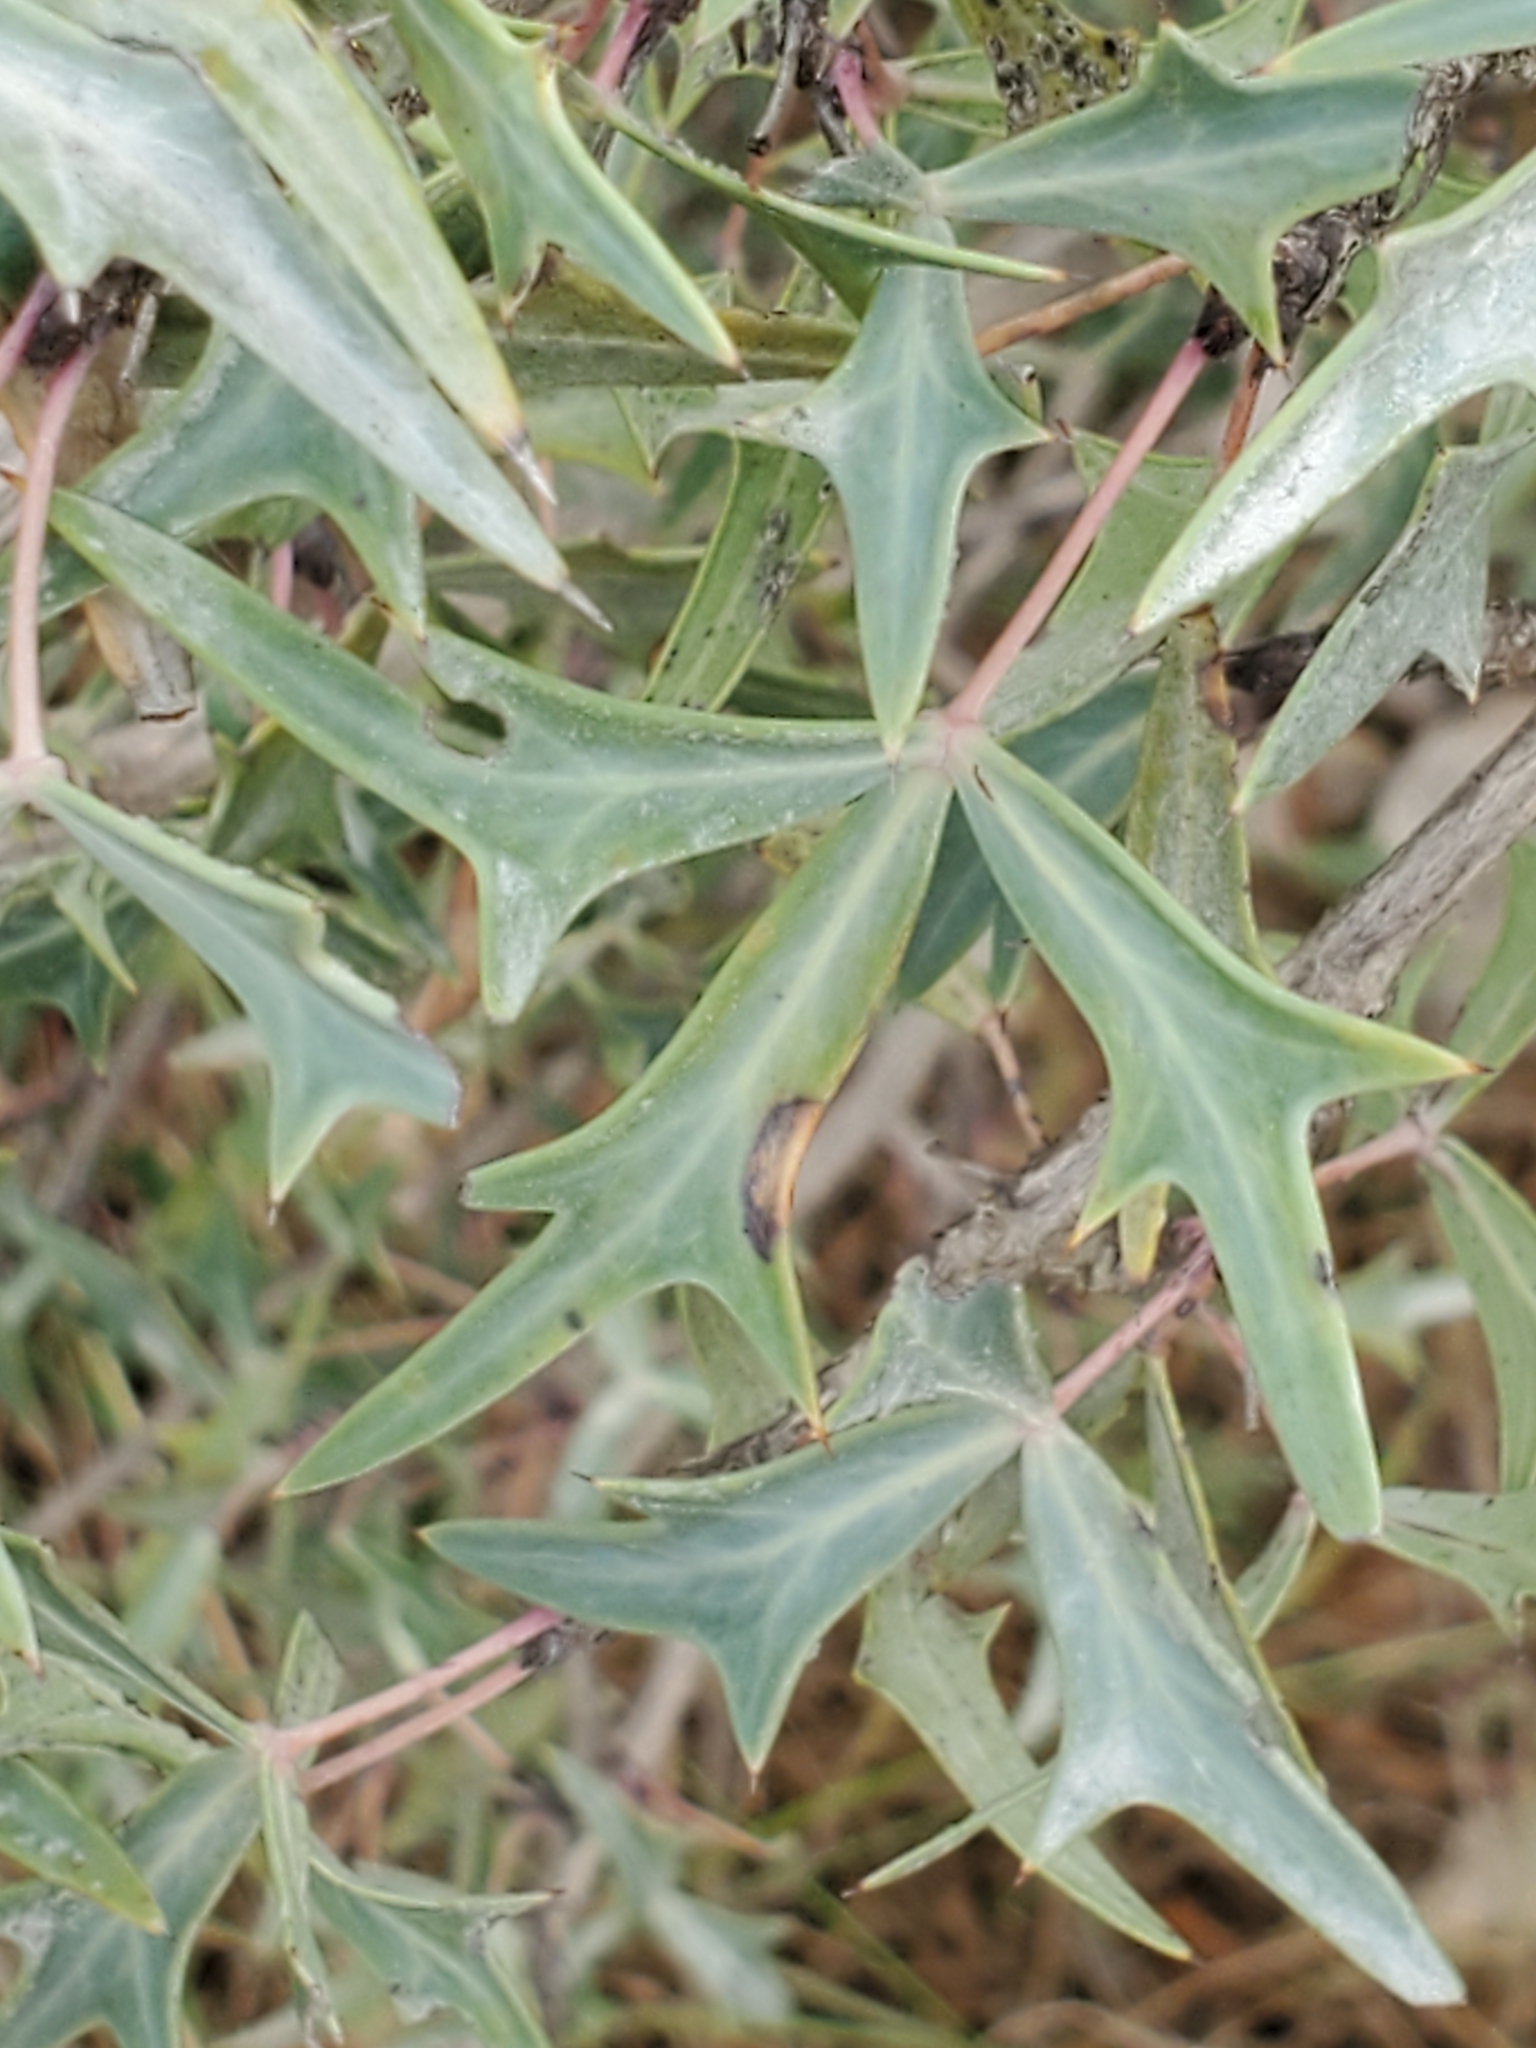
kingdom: Plantae
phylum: Tracheophyta
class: Magnoliopsida
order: Ranunculales
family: Berberidaceae
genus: Alloberberis
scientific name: Alloberberis trifoliolata
